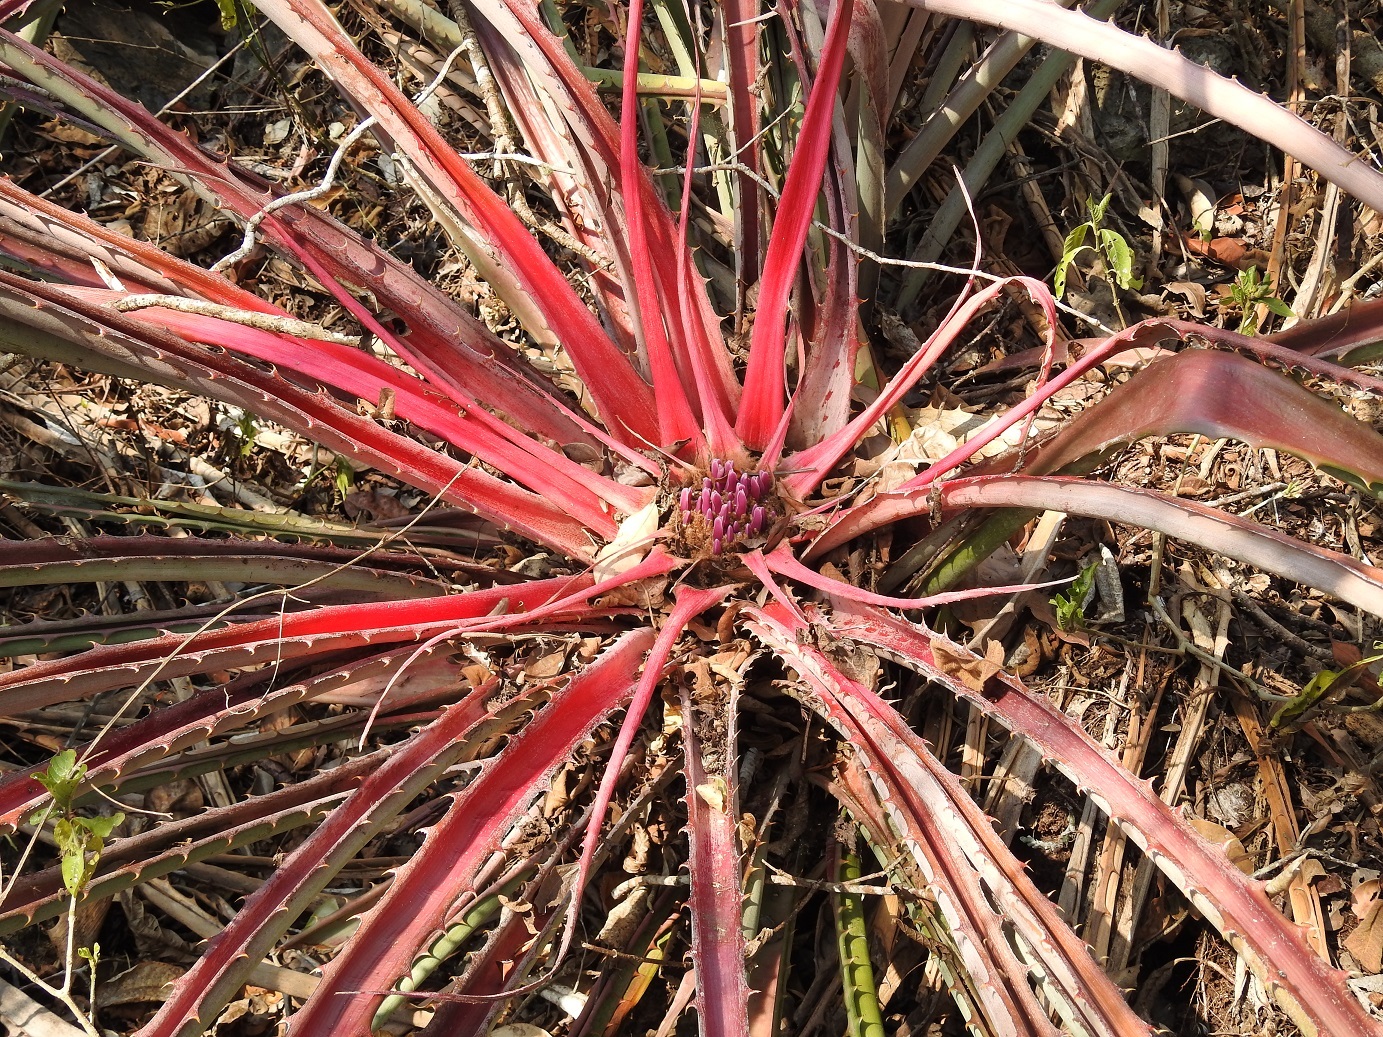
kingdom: Plantae
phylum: Tracheophyta
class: Liliopsida
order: Poales
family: Bromeliaceae
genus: Bromelia
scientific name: Bromelia karatas
